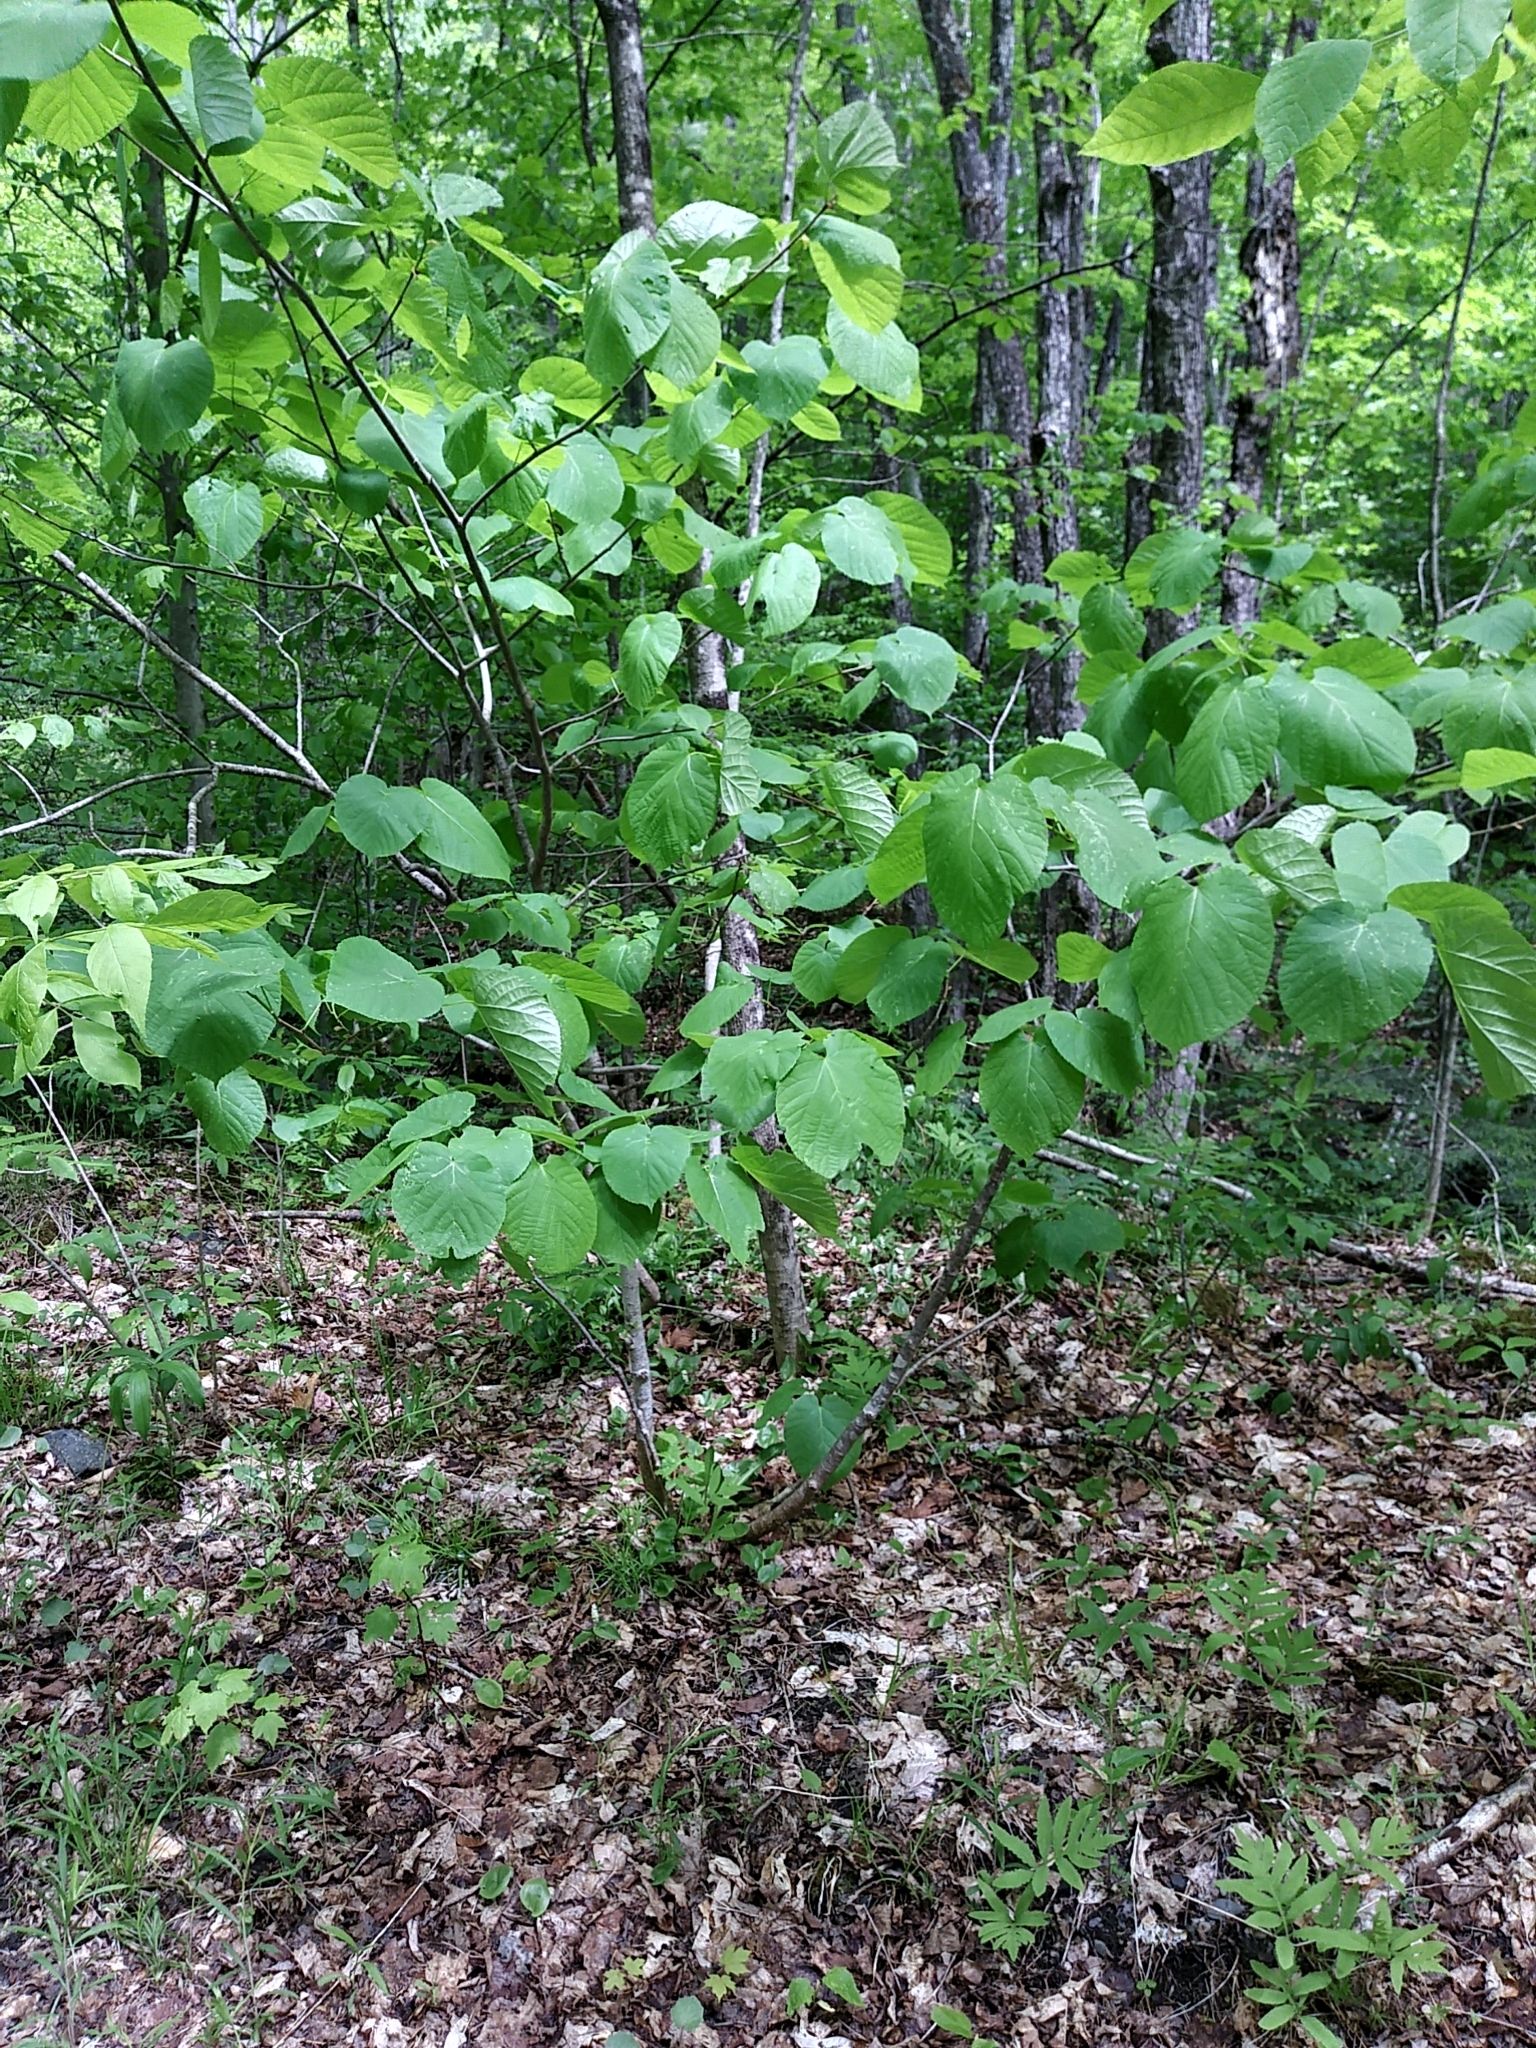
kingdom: Plantae
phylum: Tracheophyta
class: Magnoliopsida
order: Malvales
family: Malvaceae
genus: Tilia
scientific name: Tilia americana
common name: Basswood
